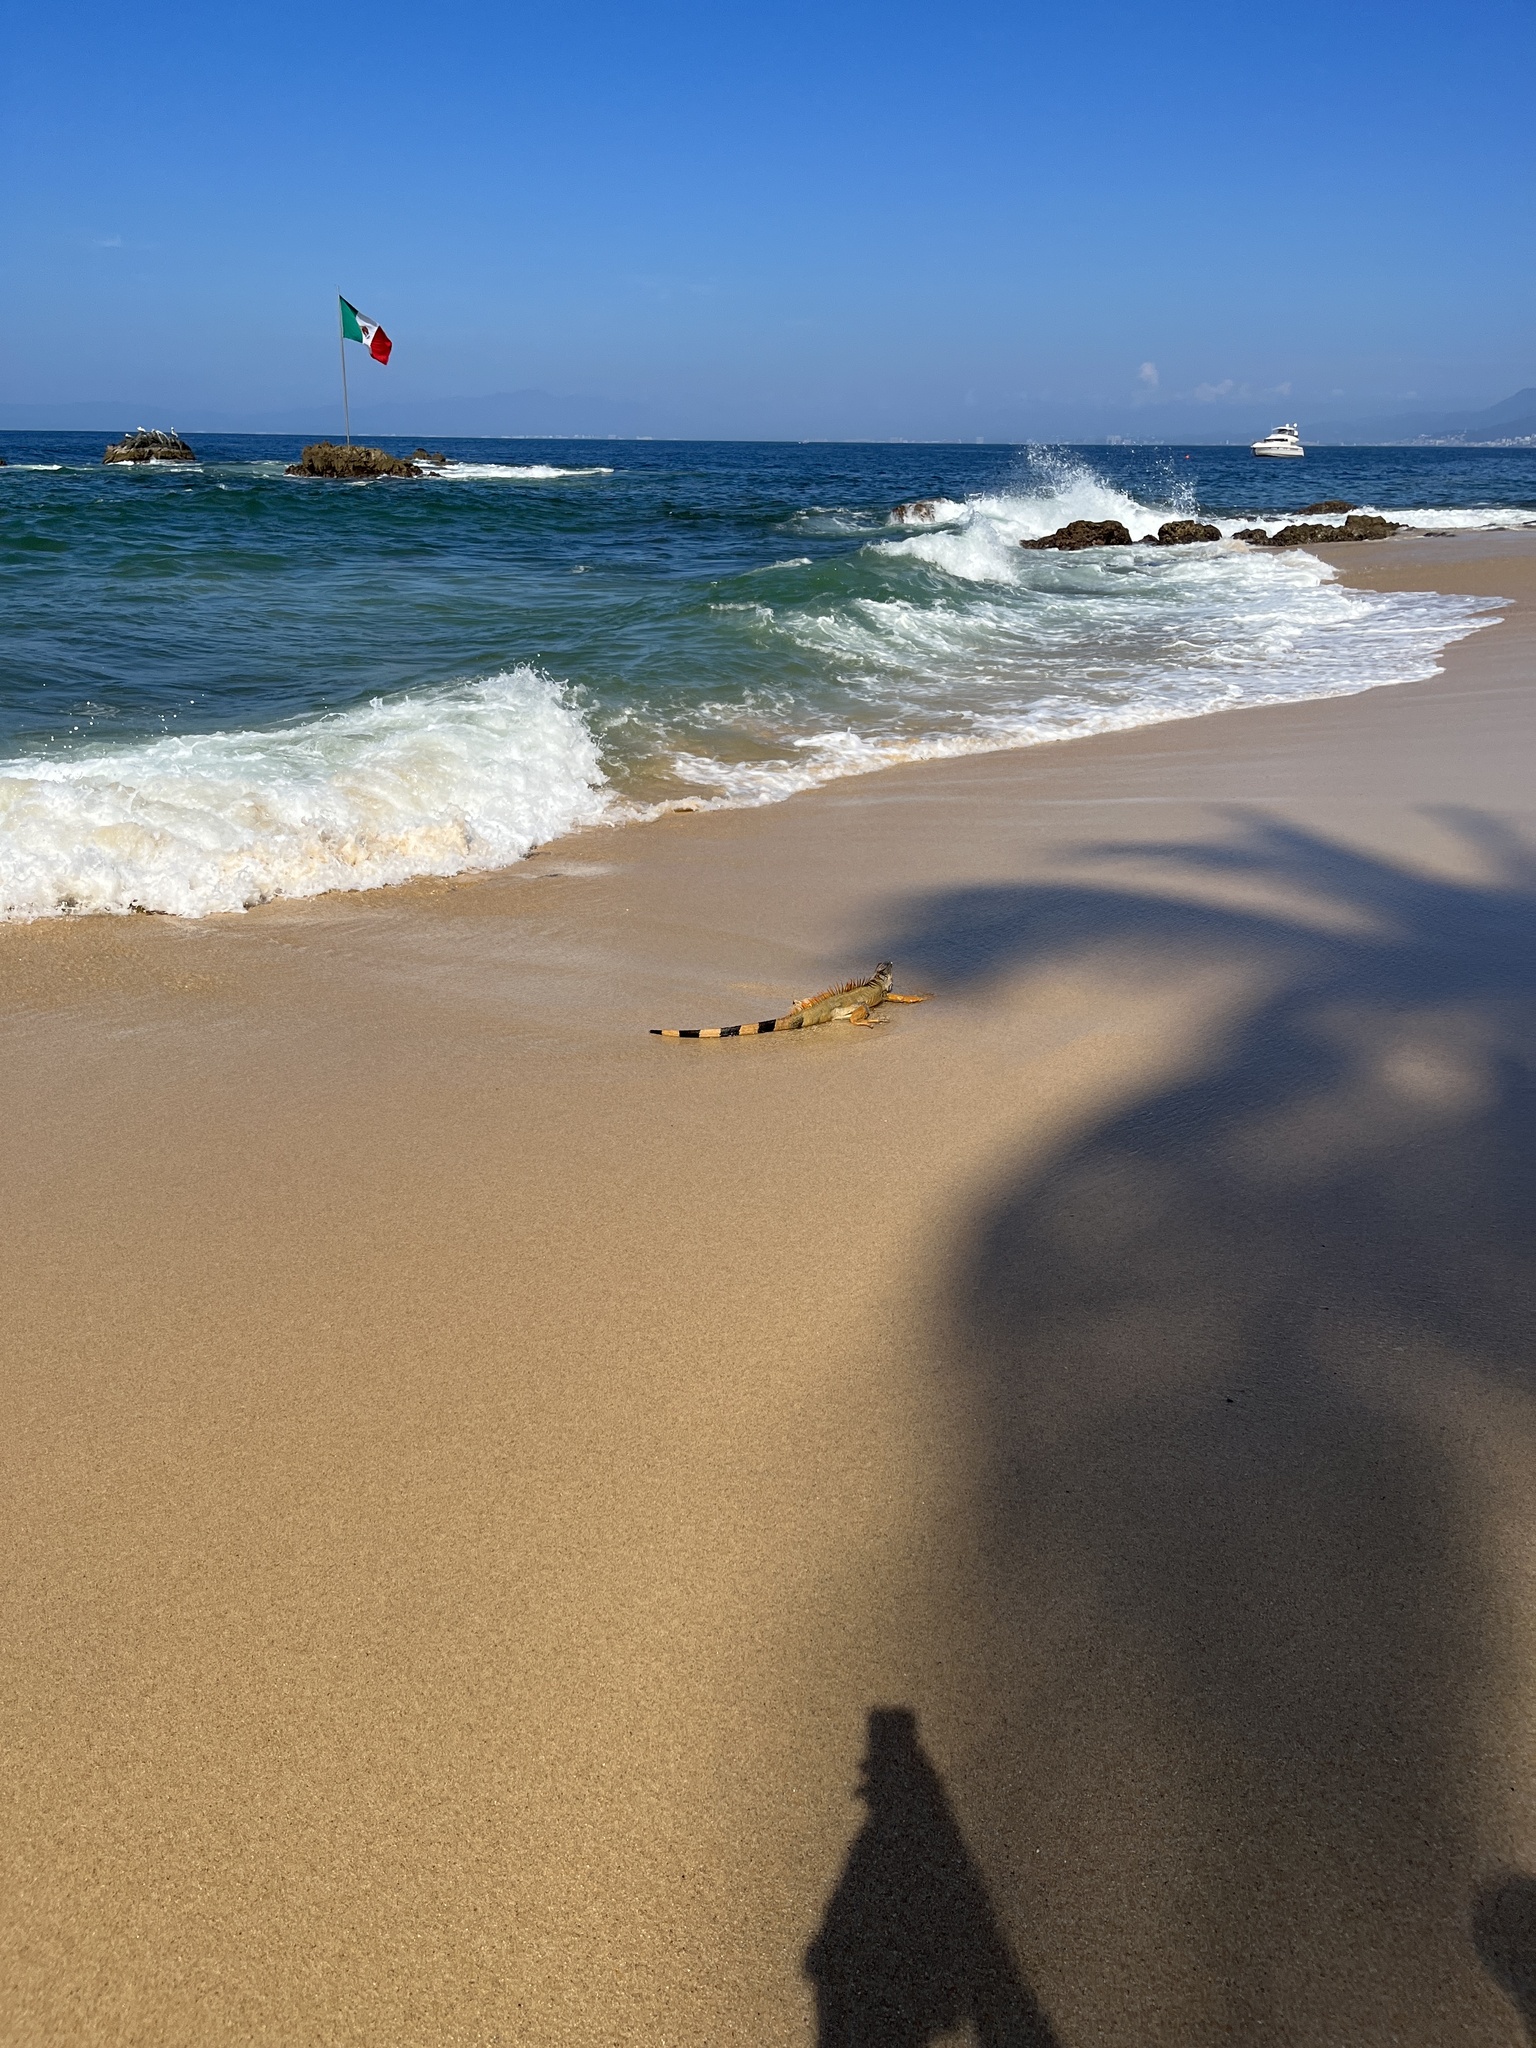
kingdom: Animalia
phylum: Chordata
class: Squamata
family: Iguanidae
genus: Iguana
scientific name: Iguana iguana
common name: Green iguana
